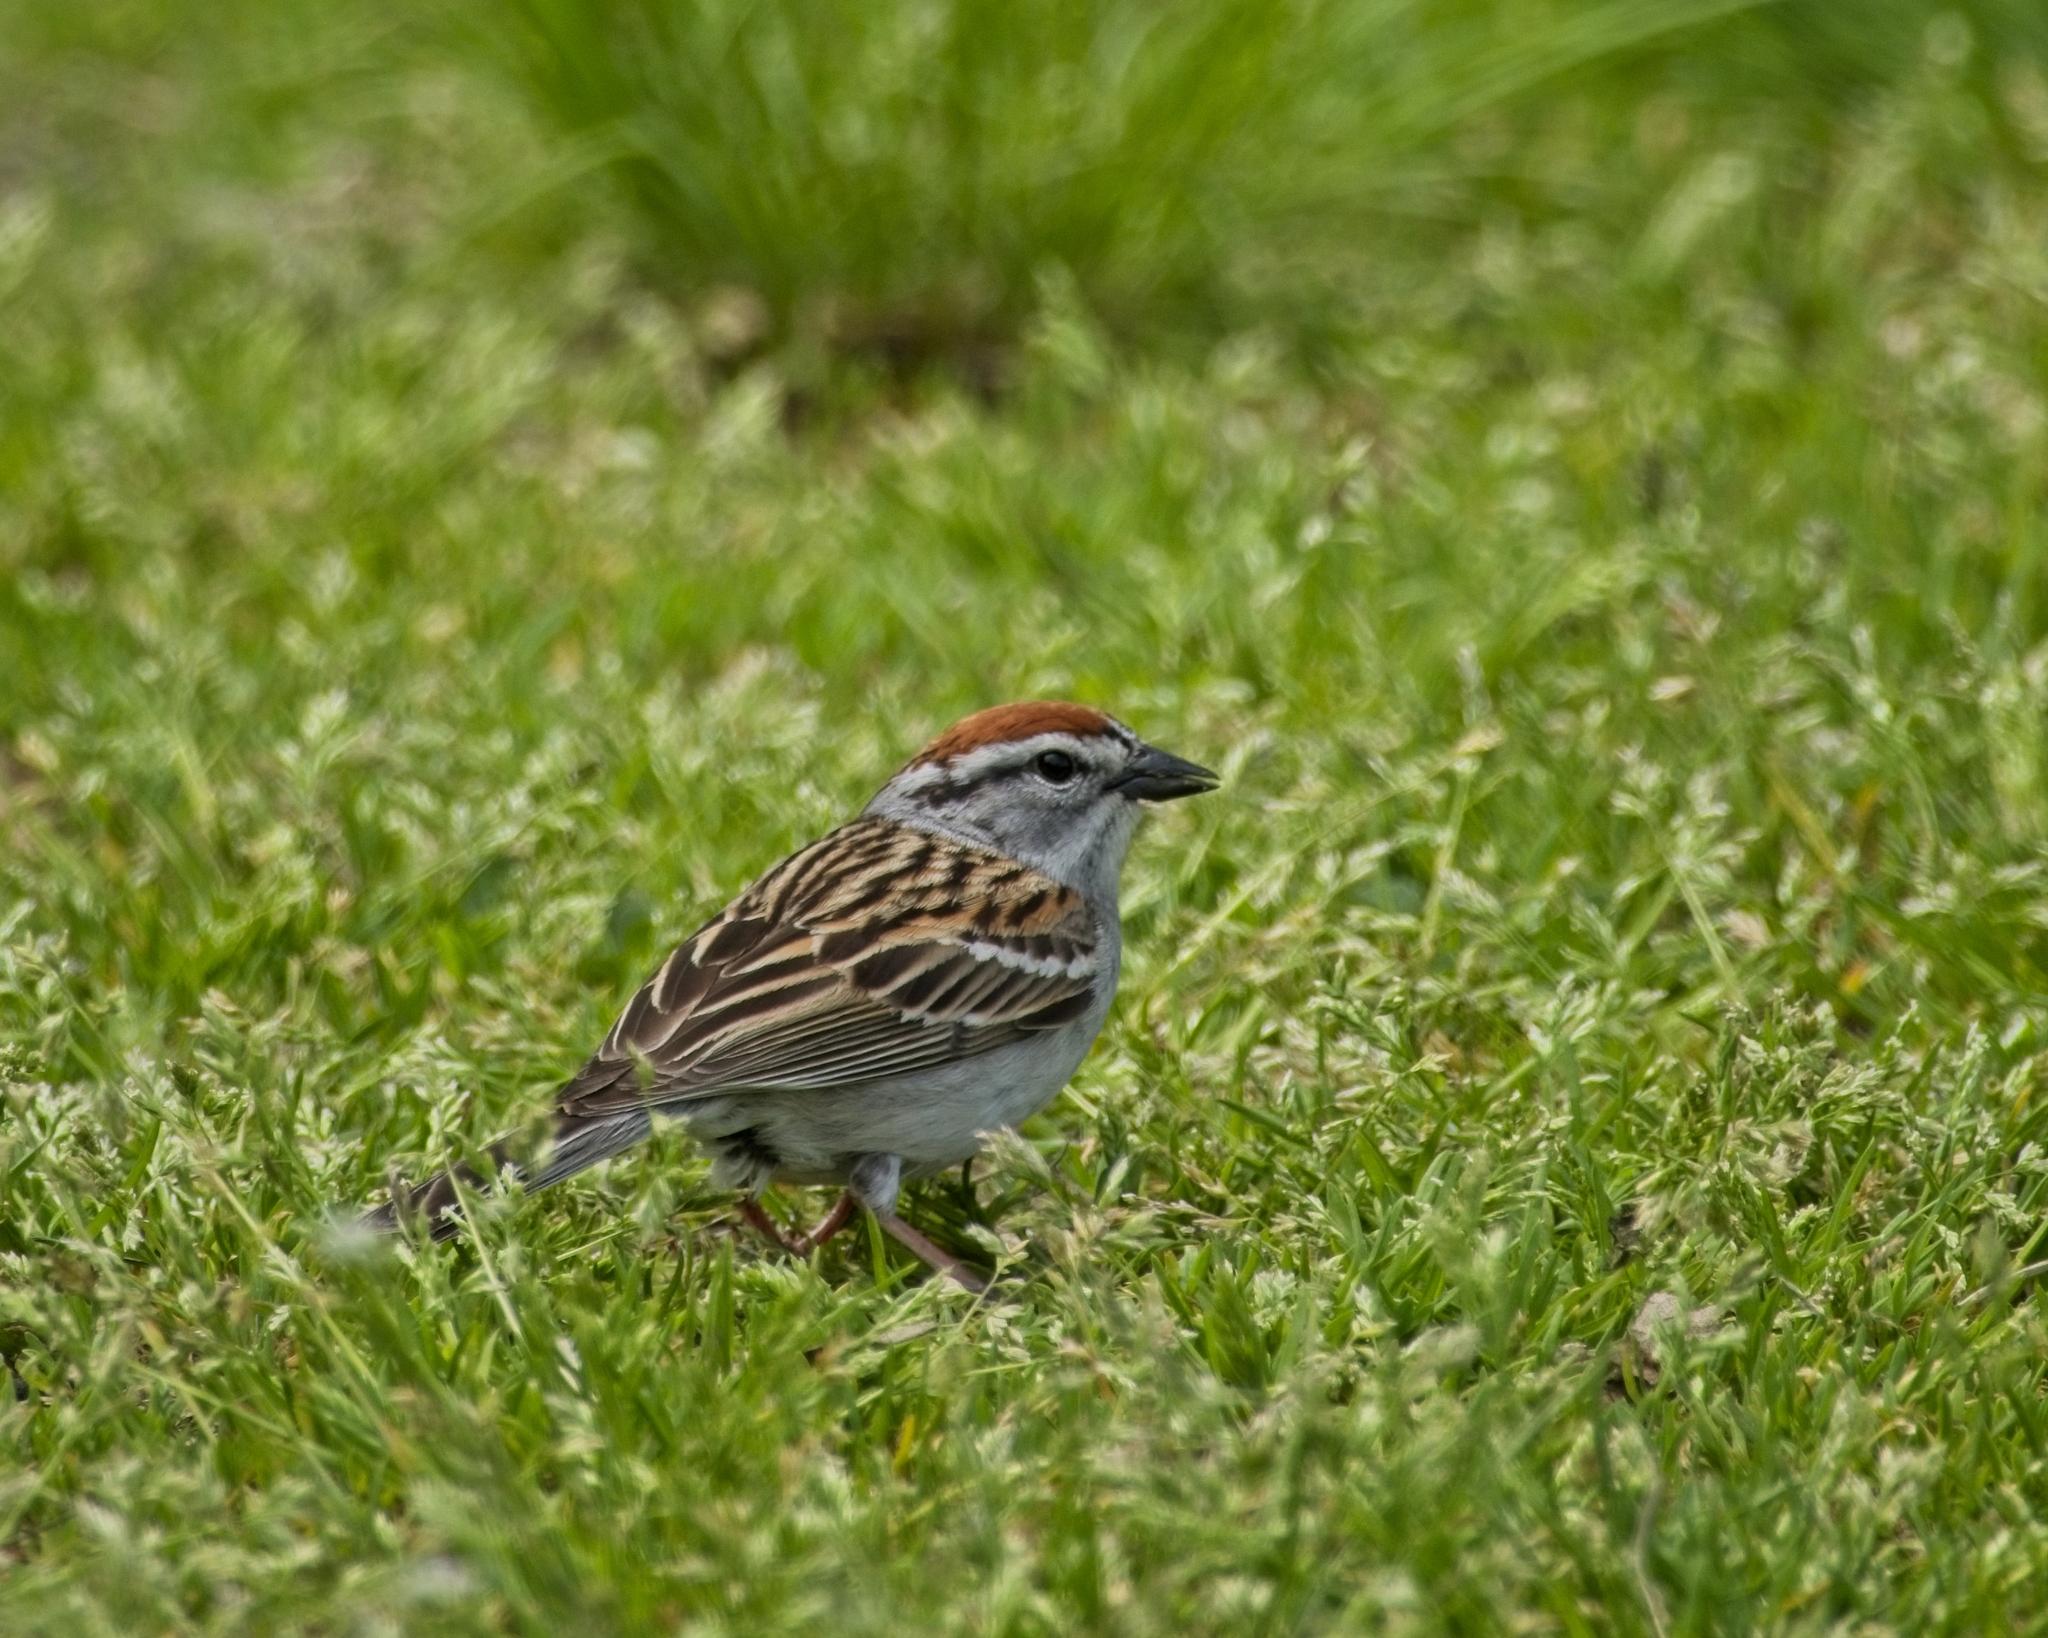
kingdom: Animalia
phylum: Chordata
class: Aves
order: Passeriformes
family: Passerellidae
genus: Spizella
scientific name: Spizella passerina
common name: Chipping sparrow
